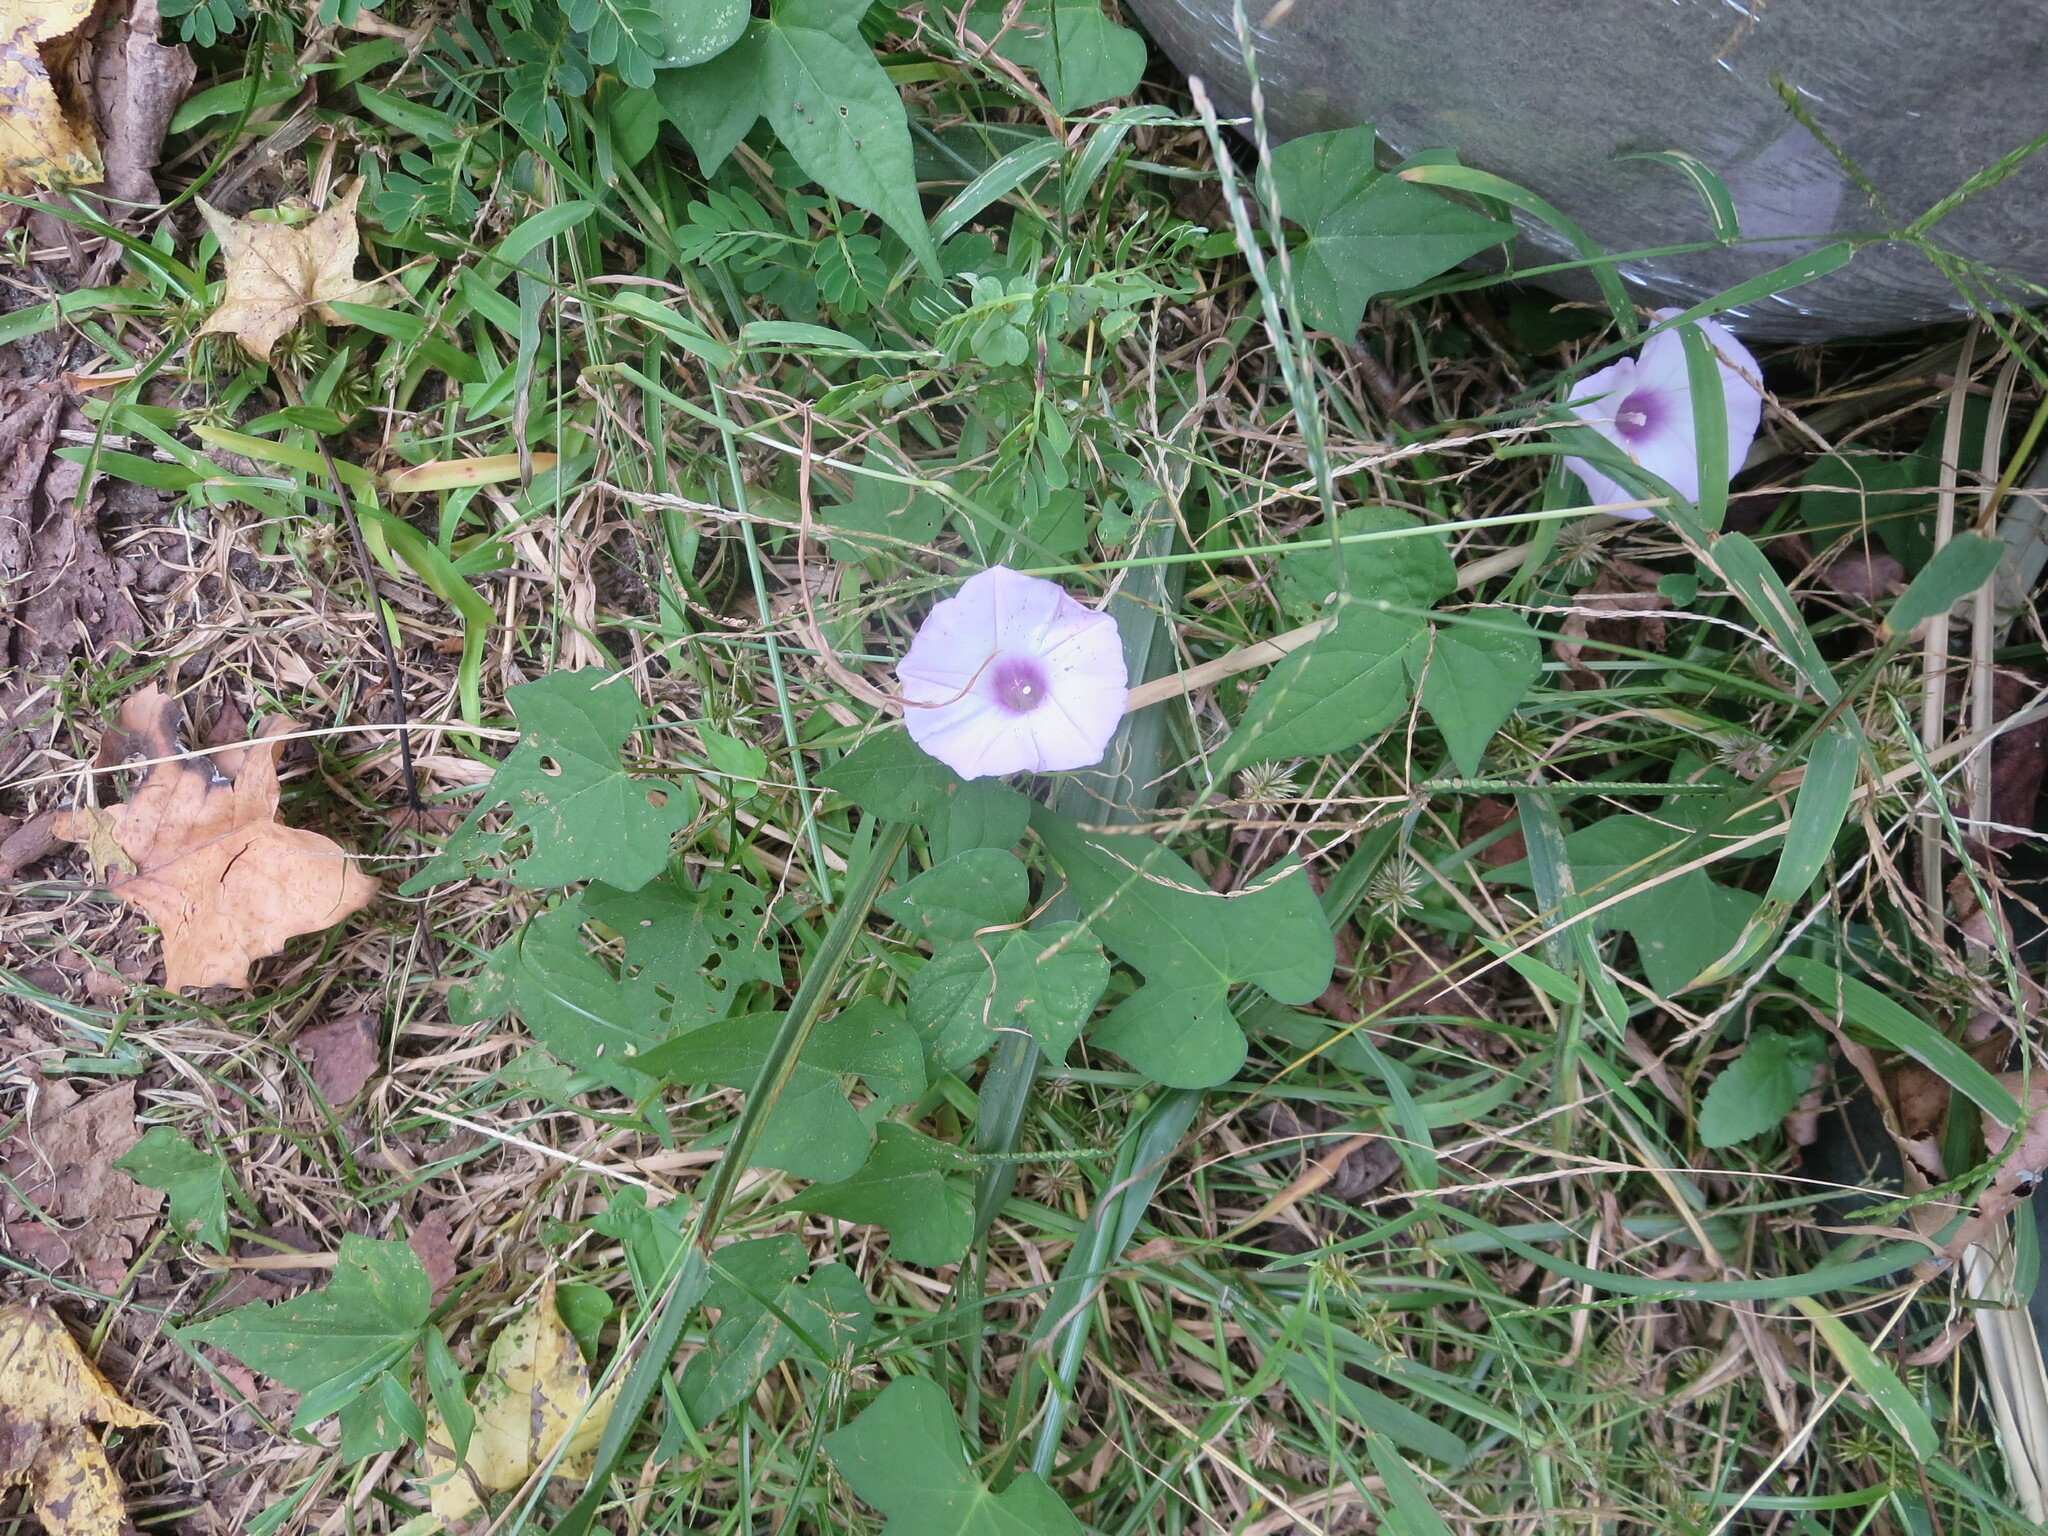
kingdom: Plantae
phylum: Tracheophyta
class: Magnoliopsida
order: Solanales
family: Convolvulaceae
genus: Ipomoea
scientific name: Ipomoea cordatotriloba
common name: Cotton morning glory
